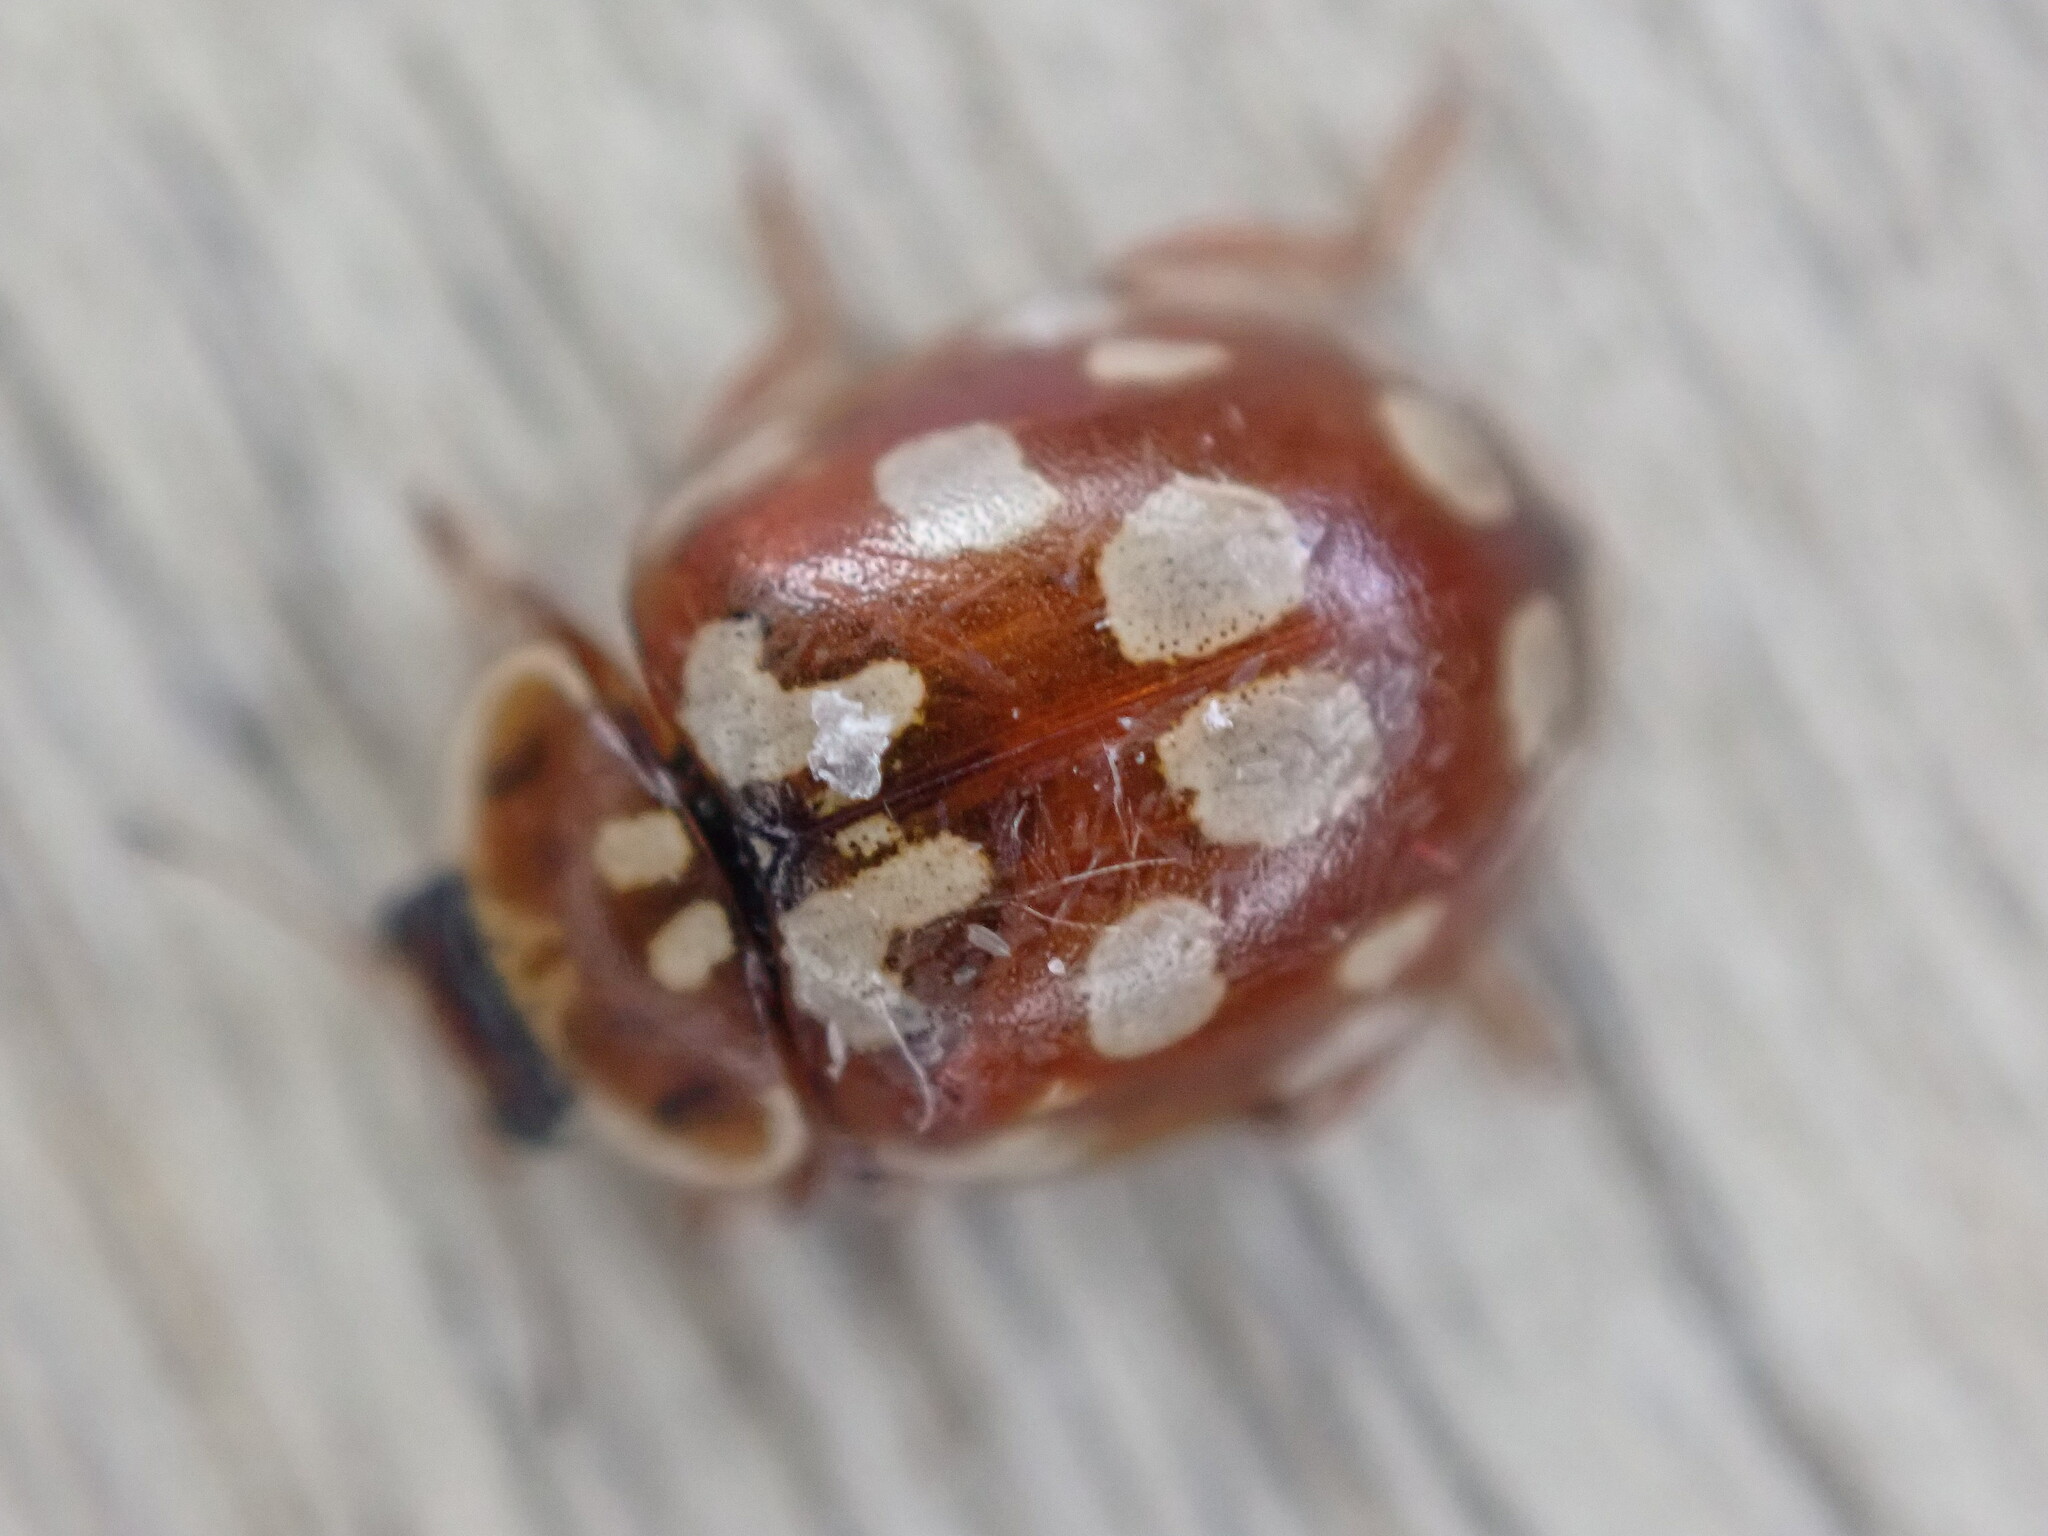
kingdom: Animalia
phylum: Arthropoda
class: Insecta
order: Coleoptera
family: Coccinellidae
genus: Myrrha
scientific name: Myrrha octodecimguttata
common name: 18-spot ladybird
